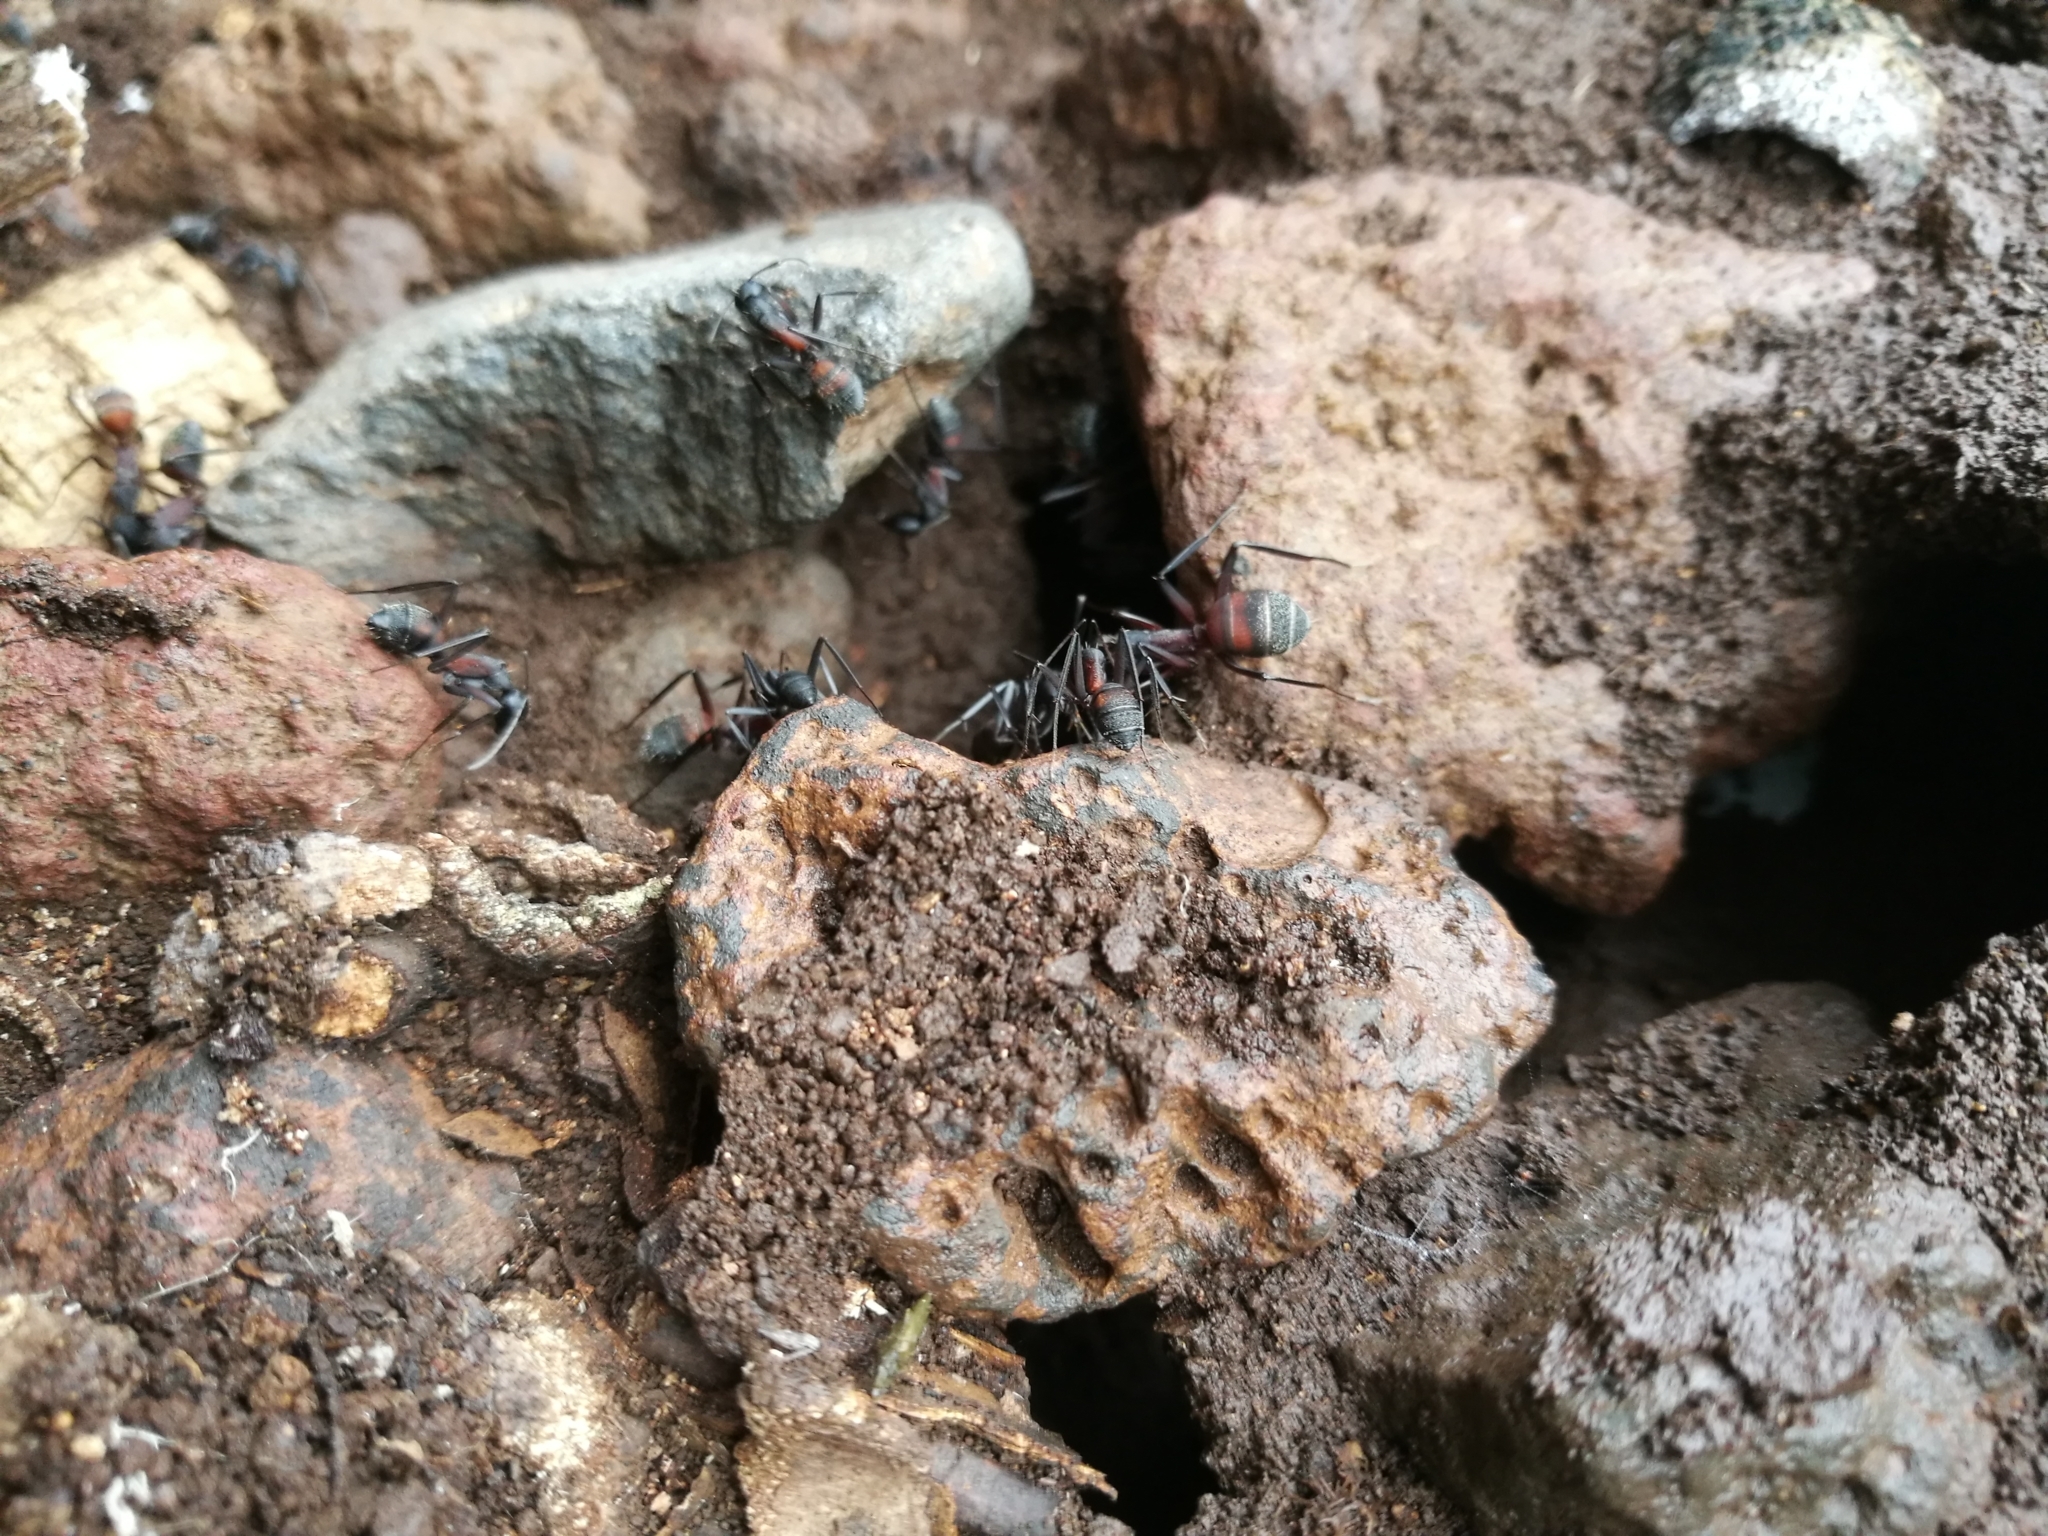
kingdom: Animalia
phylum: Arthropoda
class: Insecta
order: Hymenoptera
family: Formicidae
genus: Camponotus
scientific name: Camponotus cruentatus
